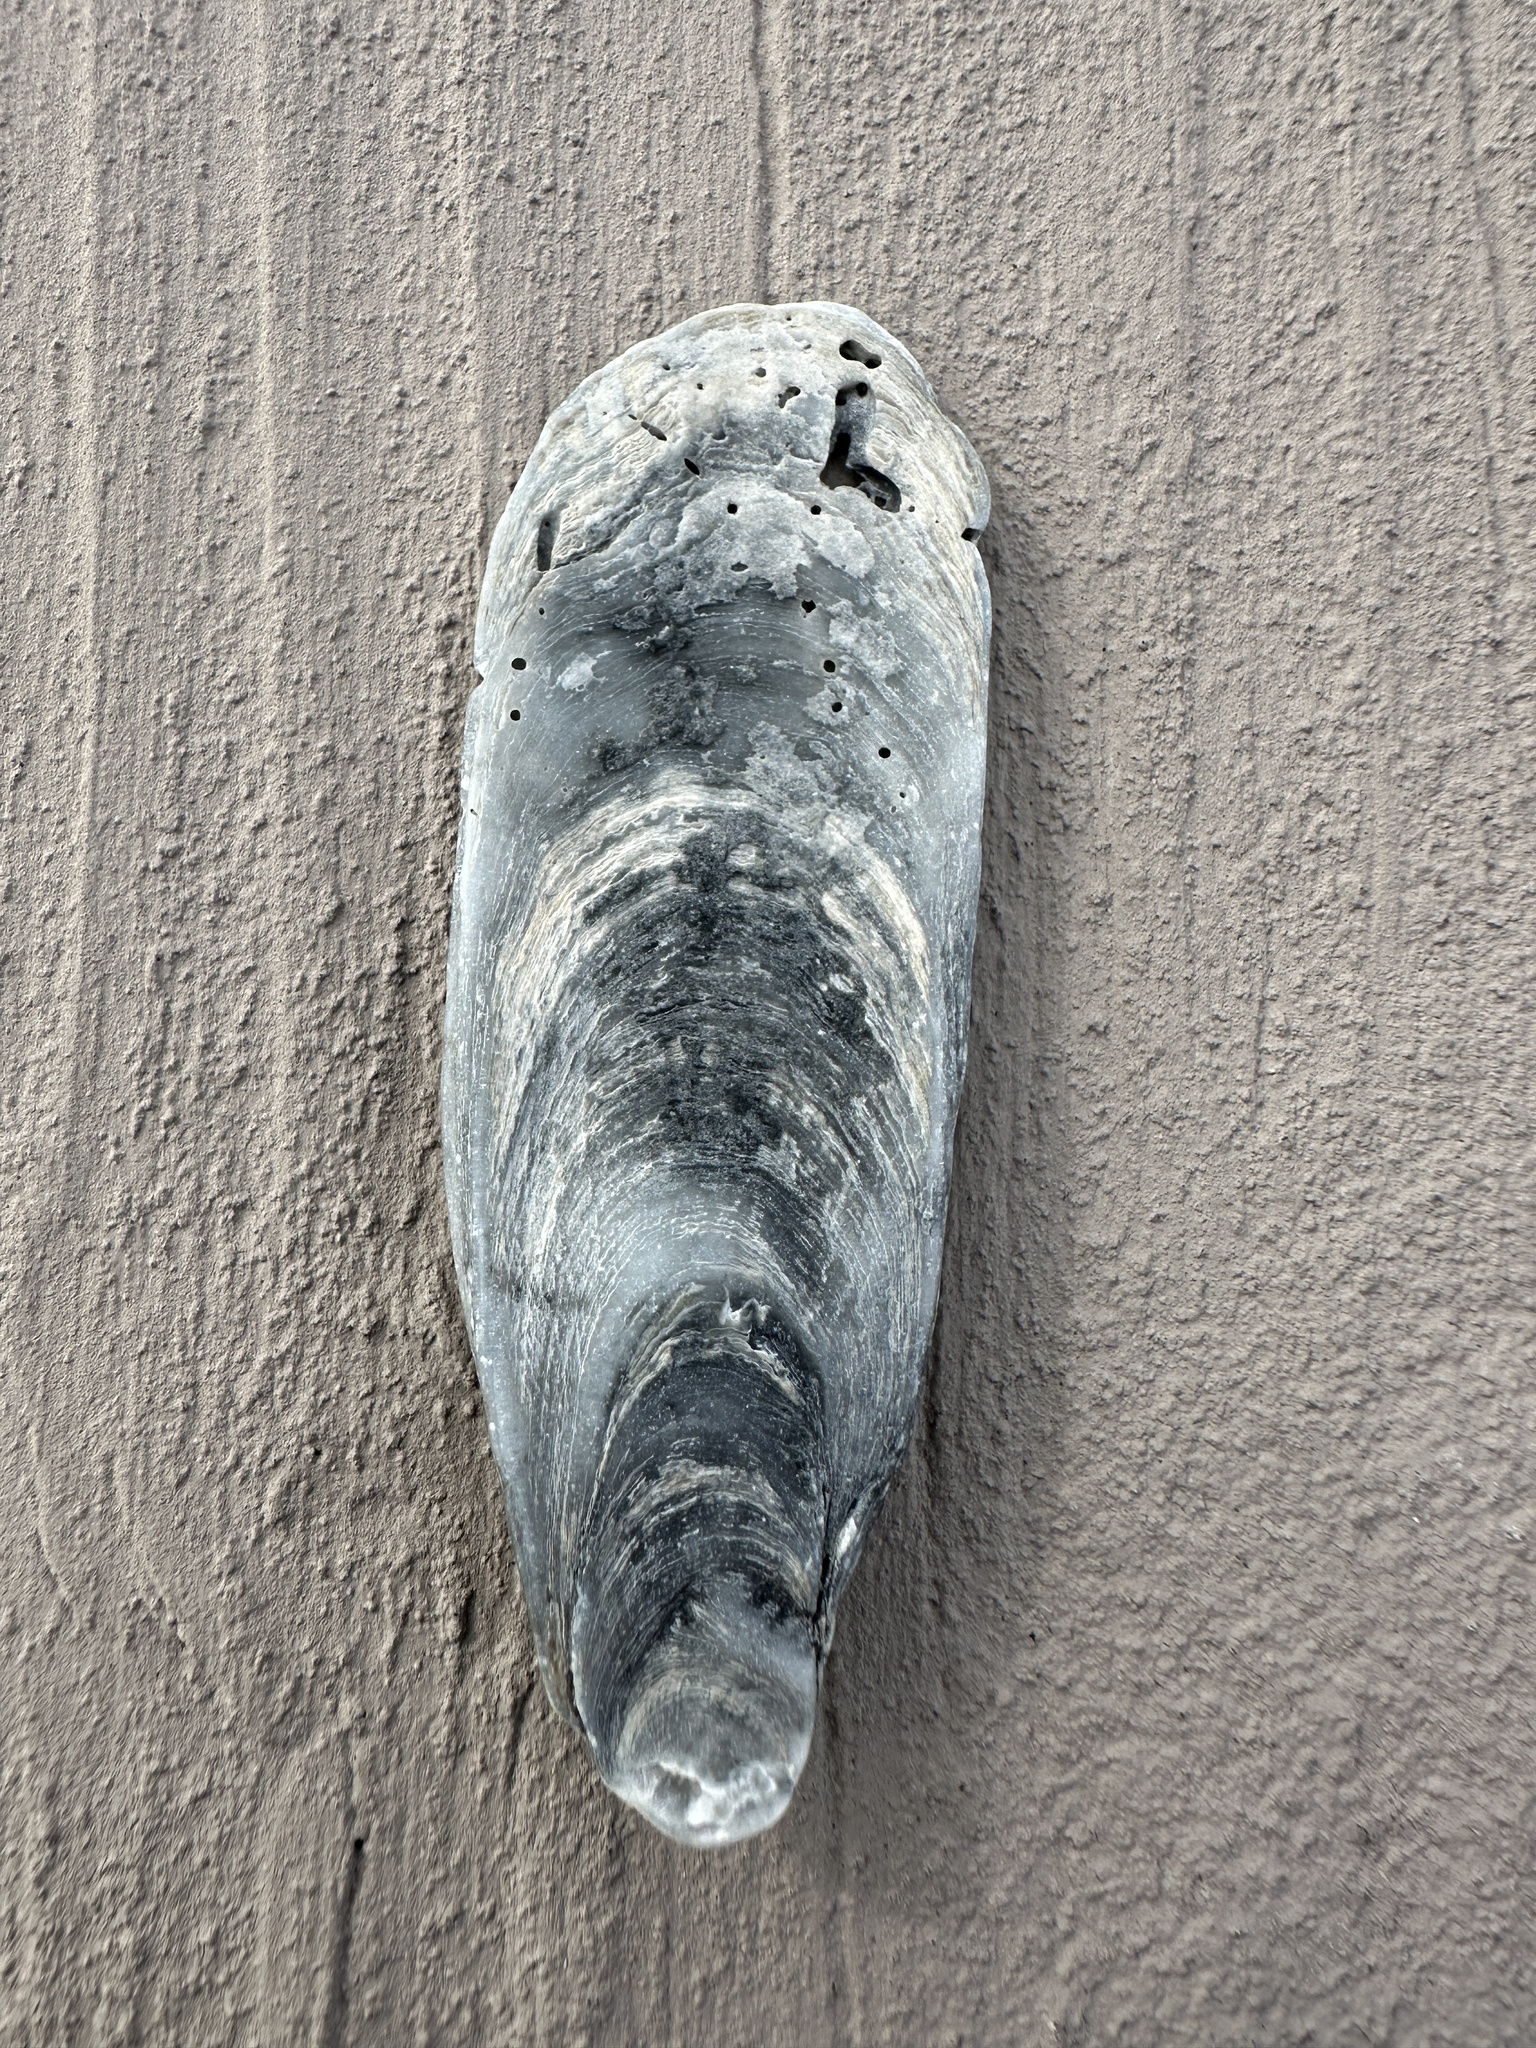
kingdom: Animalia
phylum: Mollusca
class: Bivalvia
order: Ostreida
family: Ostreidae
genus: Crassostrea
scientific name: Crassostrea virginica
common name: American oyster
